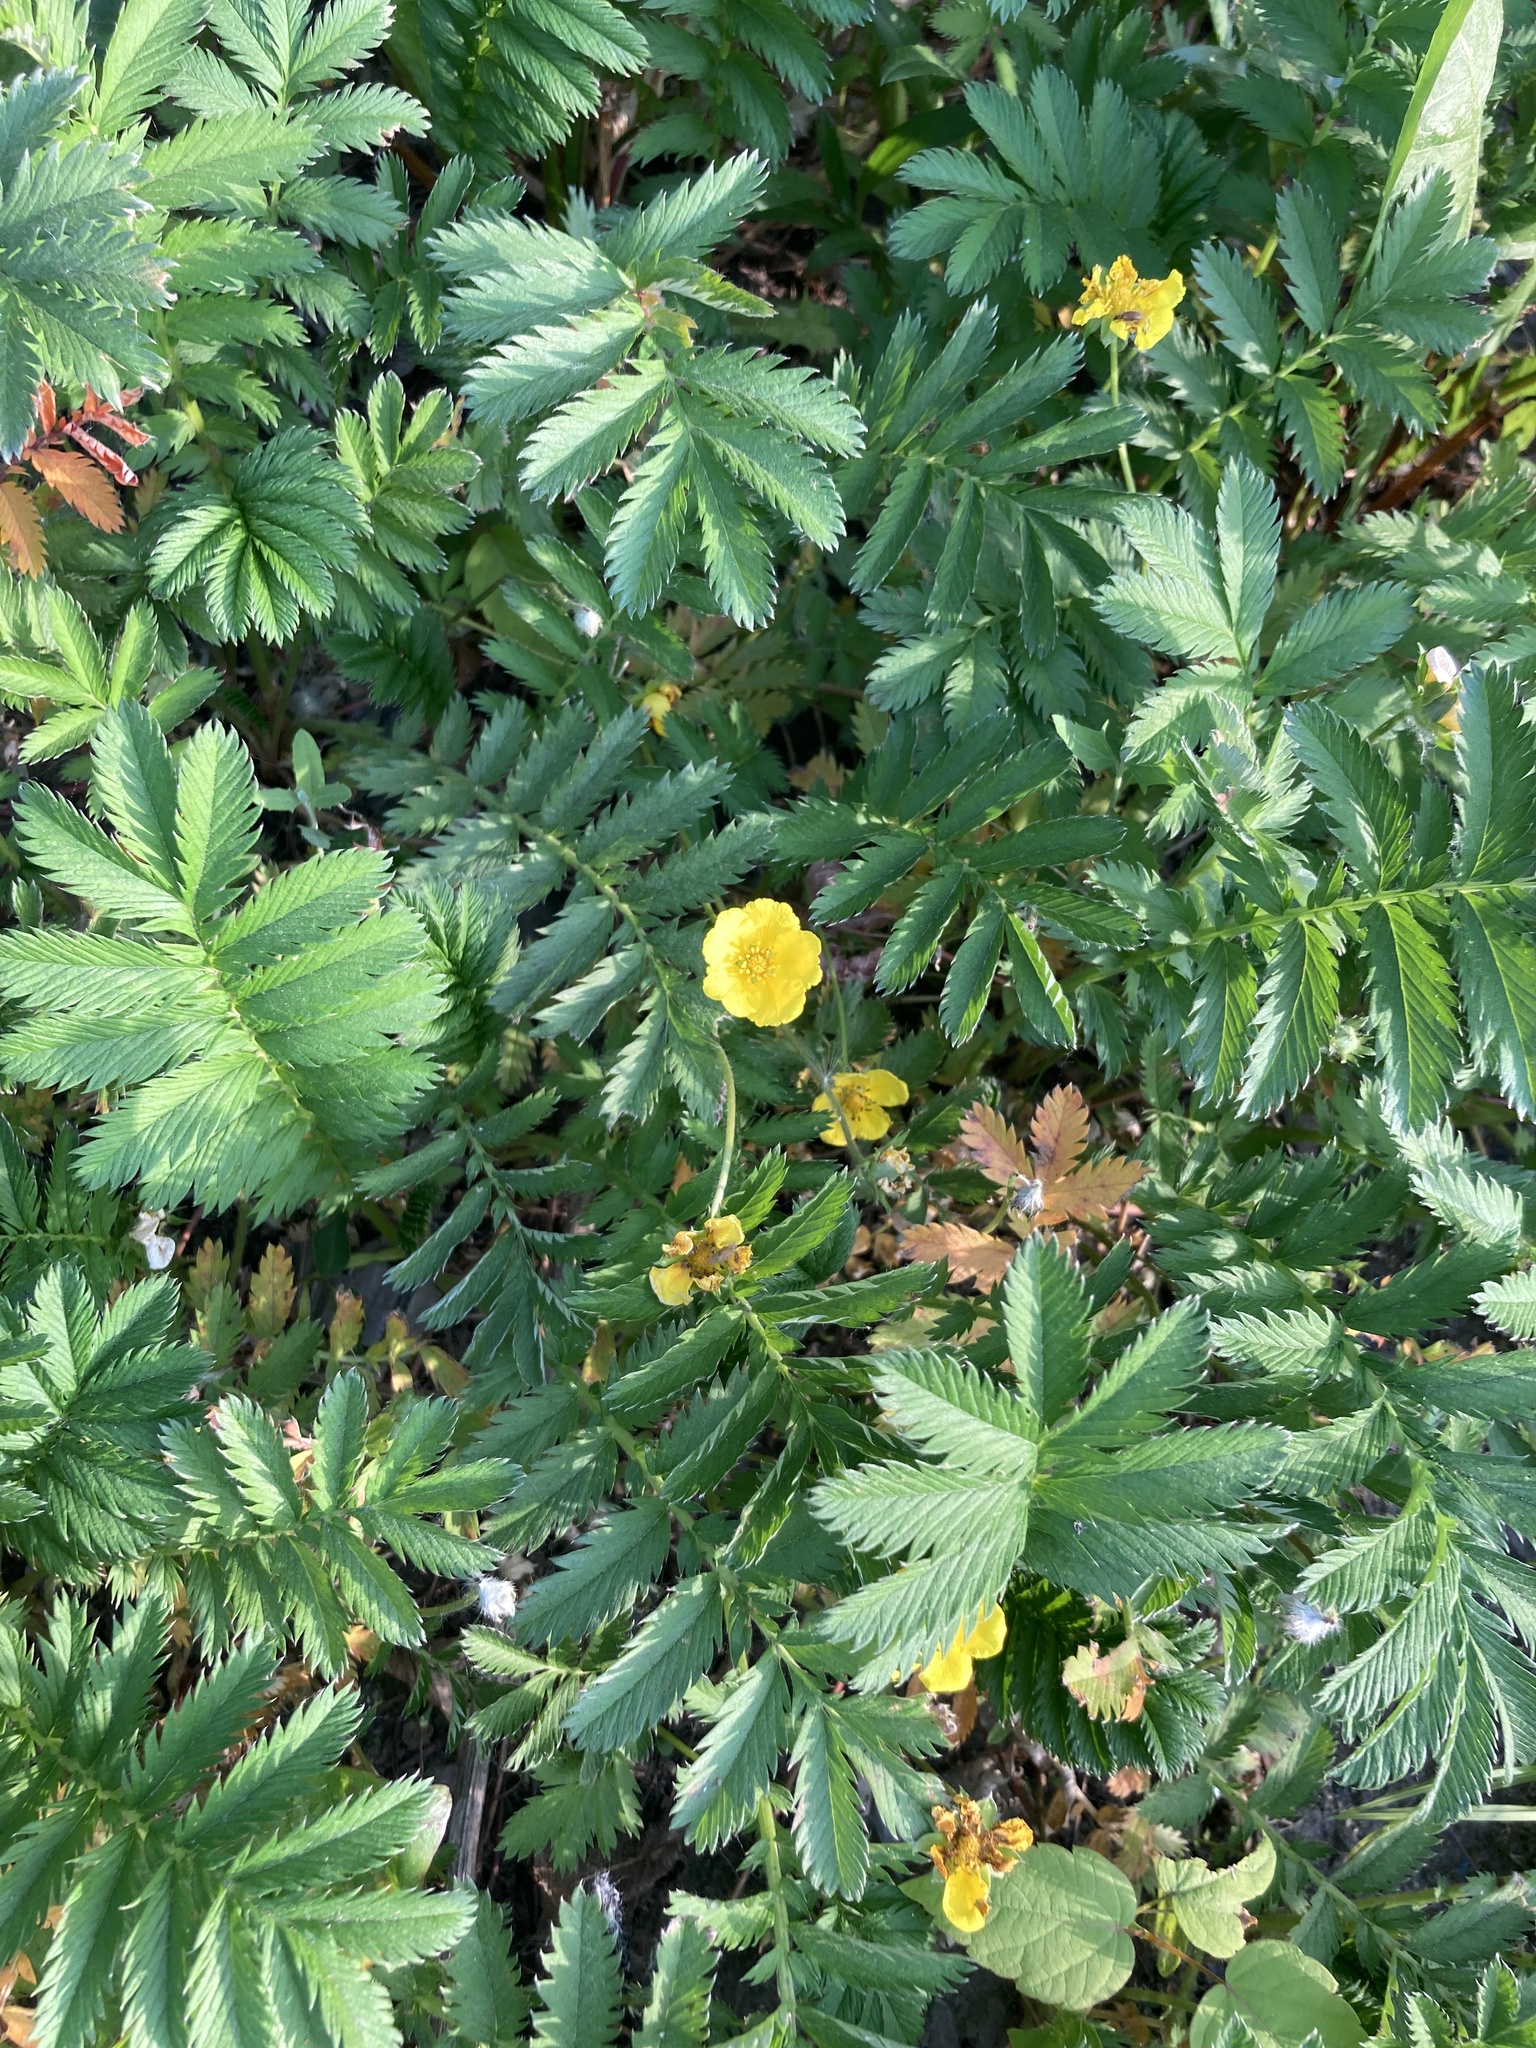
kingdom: Plantae
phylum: Tracheophyta
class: Magnoliopsida
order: Rosales
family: Rosaceae
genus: Argentina
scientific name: Argentina anserina
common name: Common silverweed
